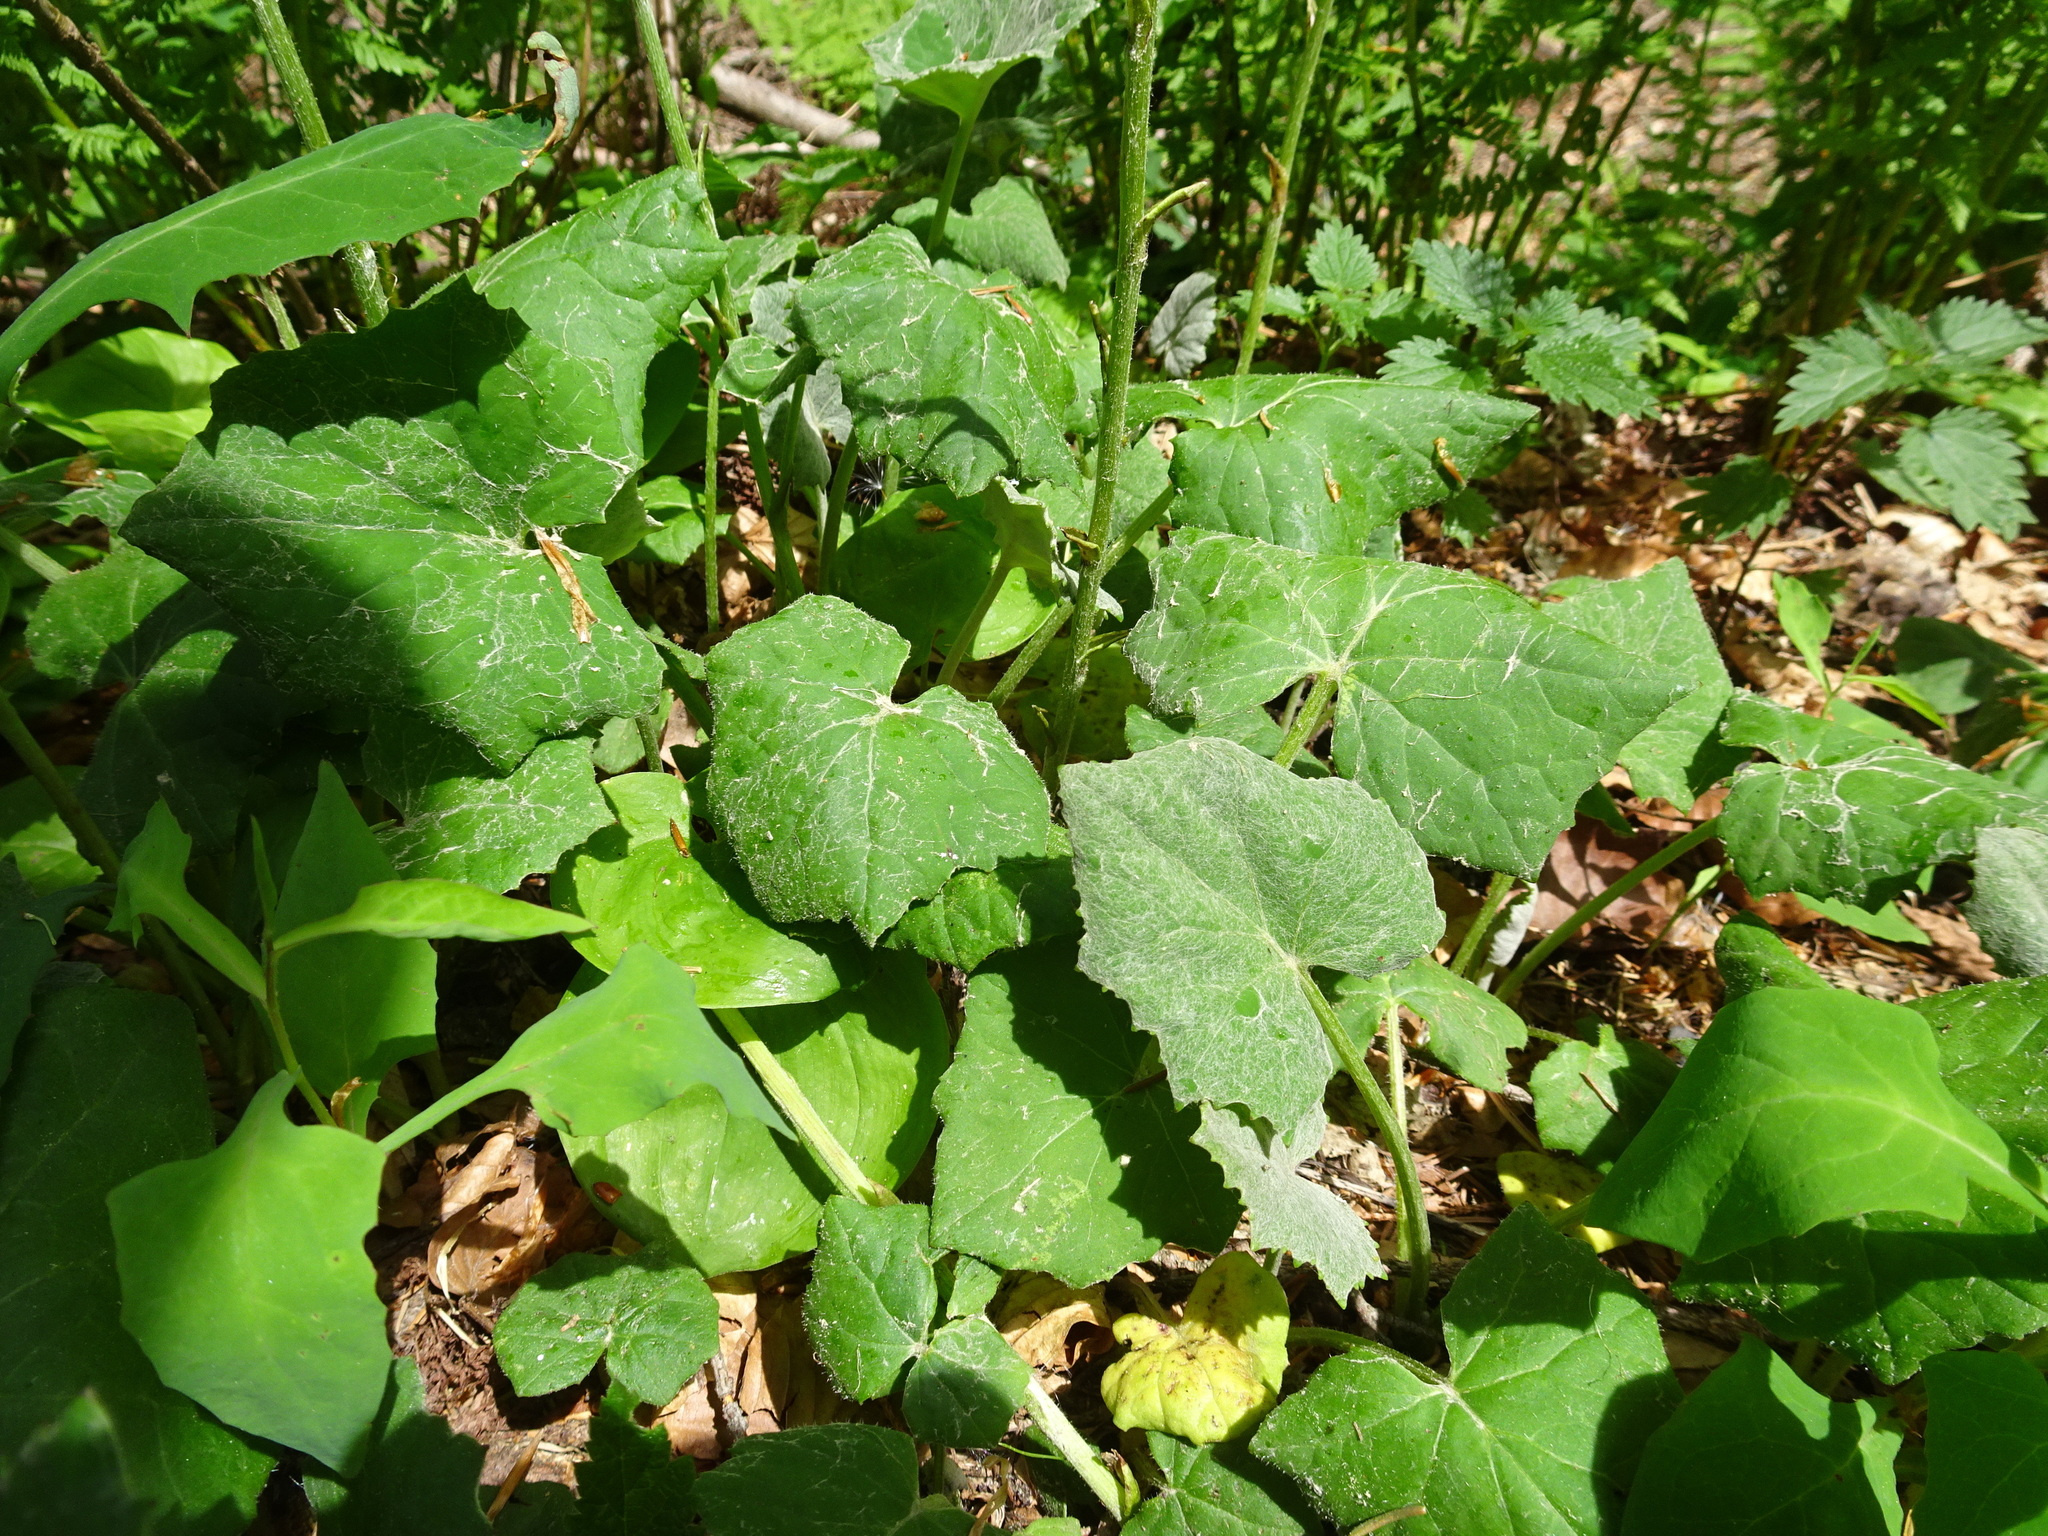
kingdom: Plantae
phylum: Tracheophyta
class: Magnoliopsida
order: Asterales
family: Asteraceae
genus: Tussilago
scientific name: Tussilago farfara
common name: Coltsfoot
